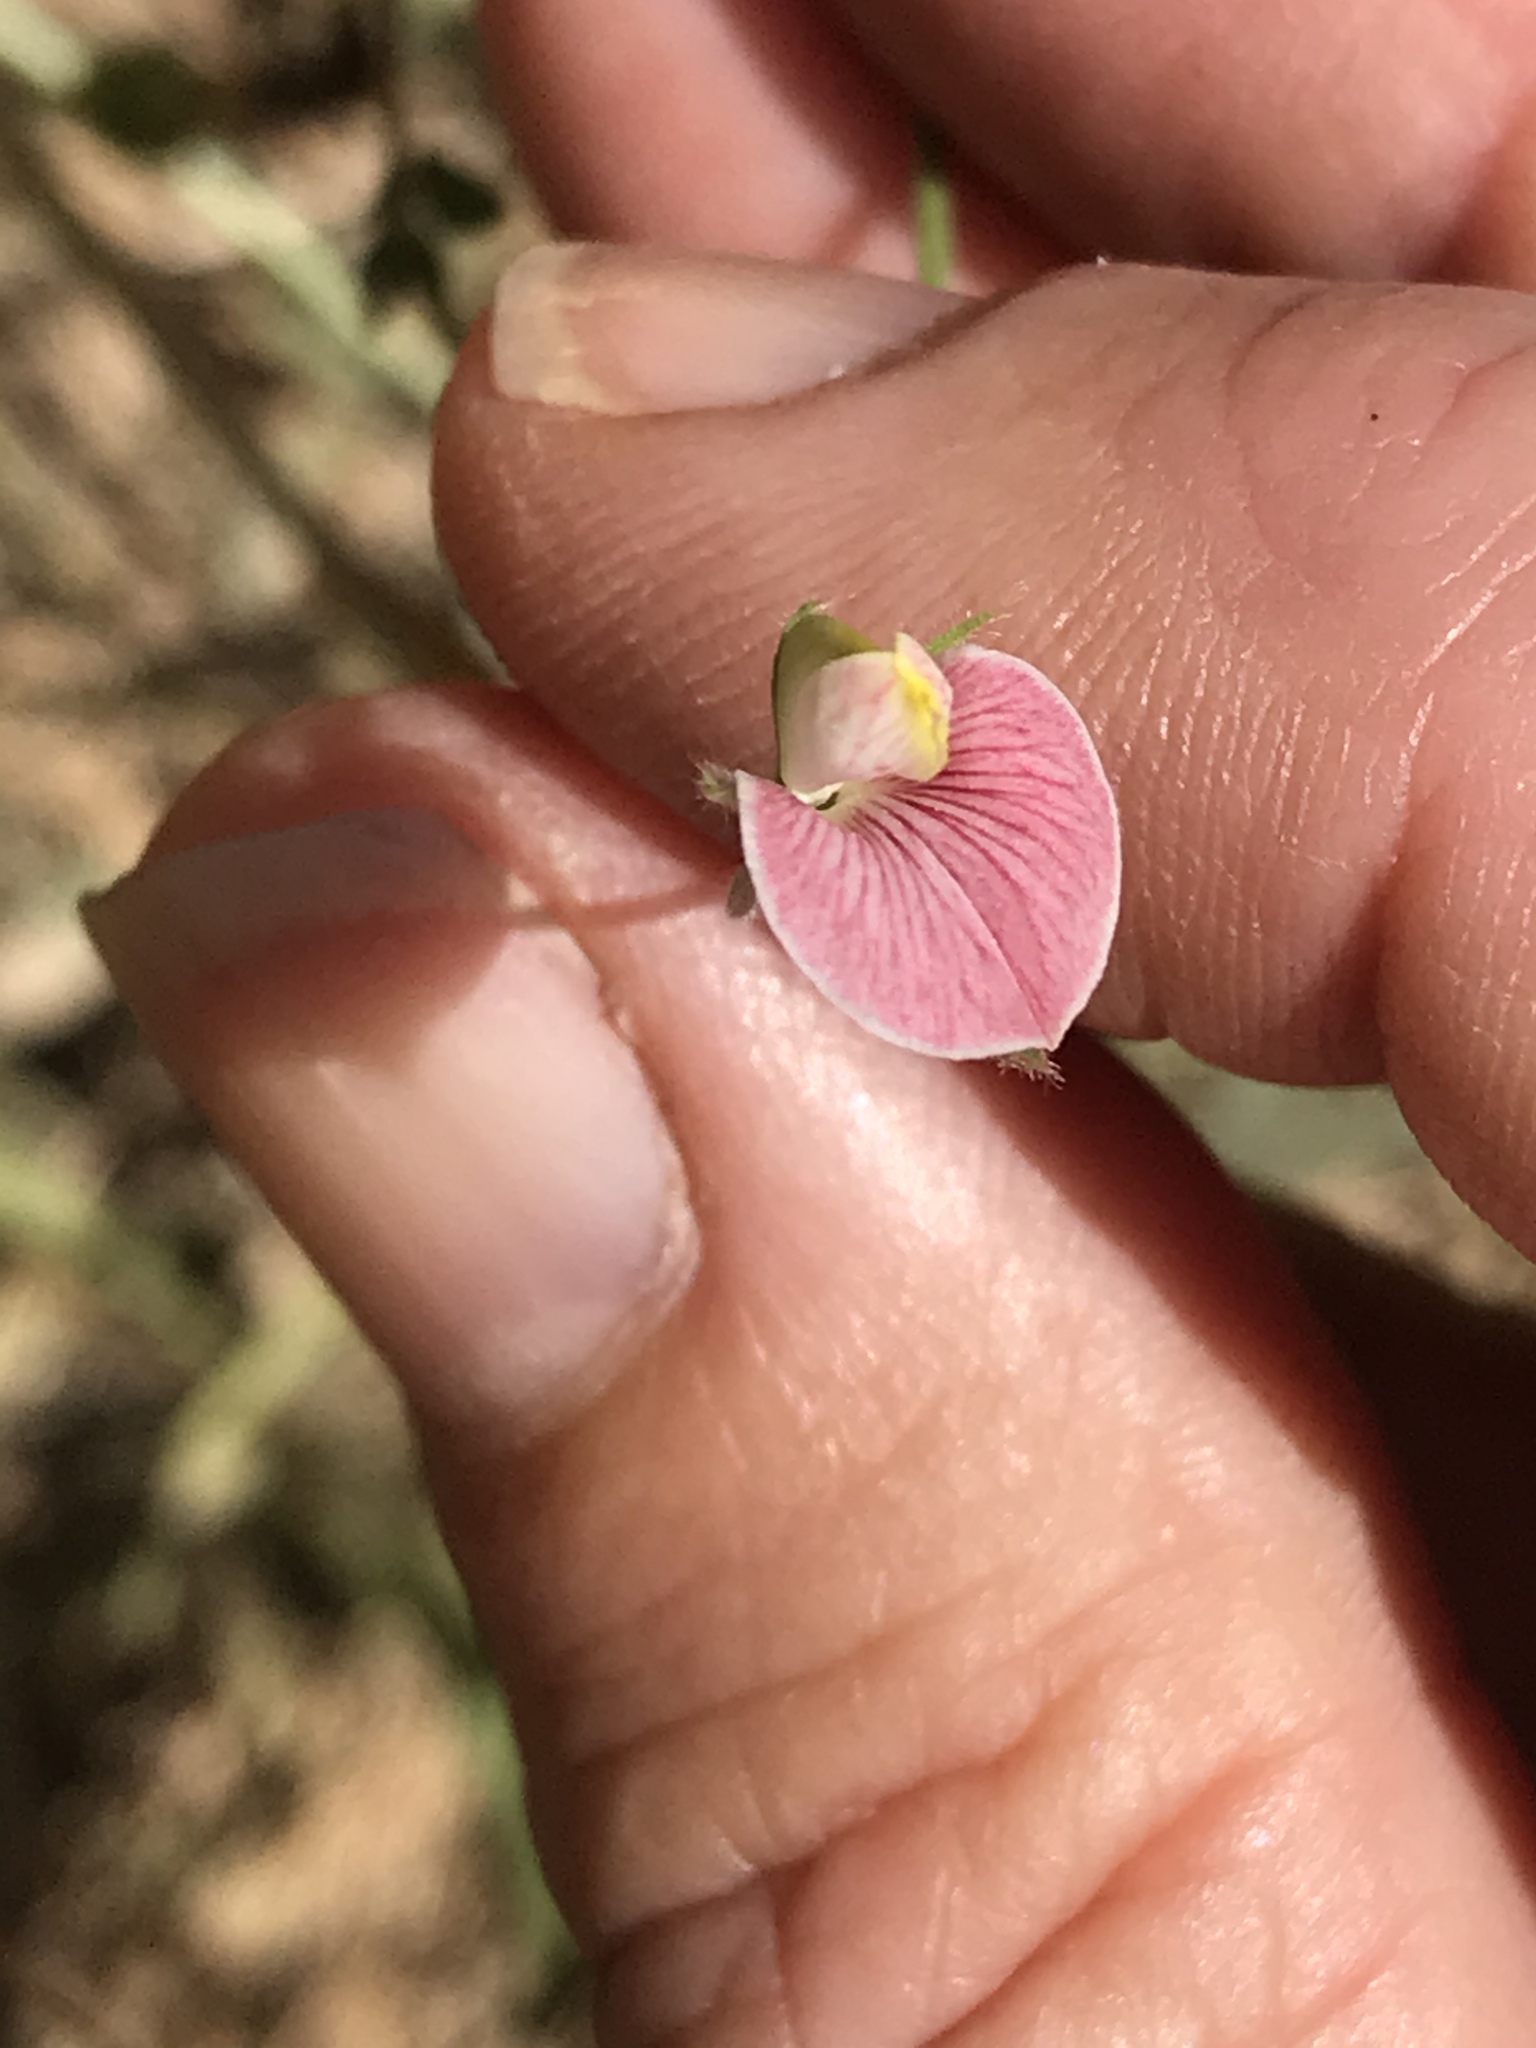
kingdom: Plantae
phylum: Tracheophyta
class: Magnoliopsida
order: Fabales
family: Fabaceae
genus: Acmispon
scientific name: Acmispon americanus
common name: American bird's-foot trefoil
